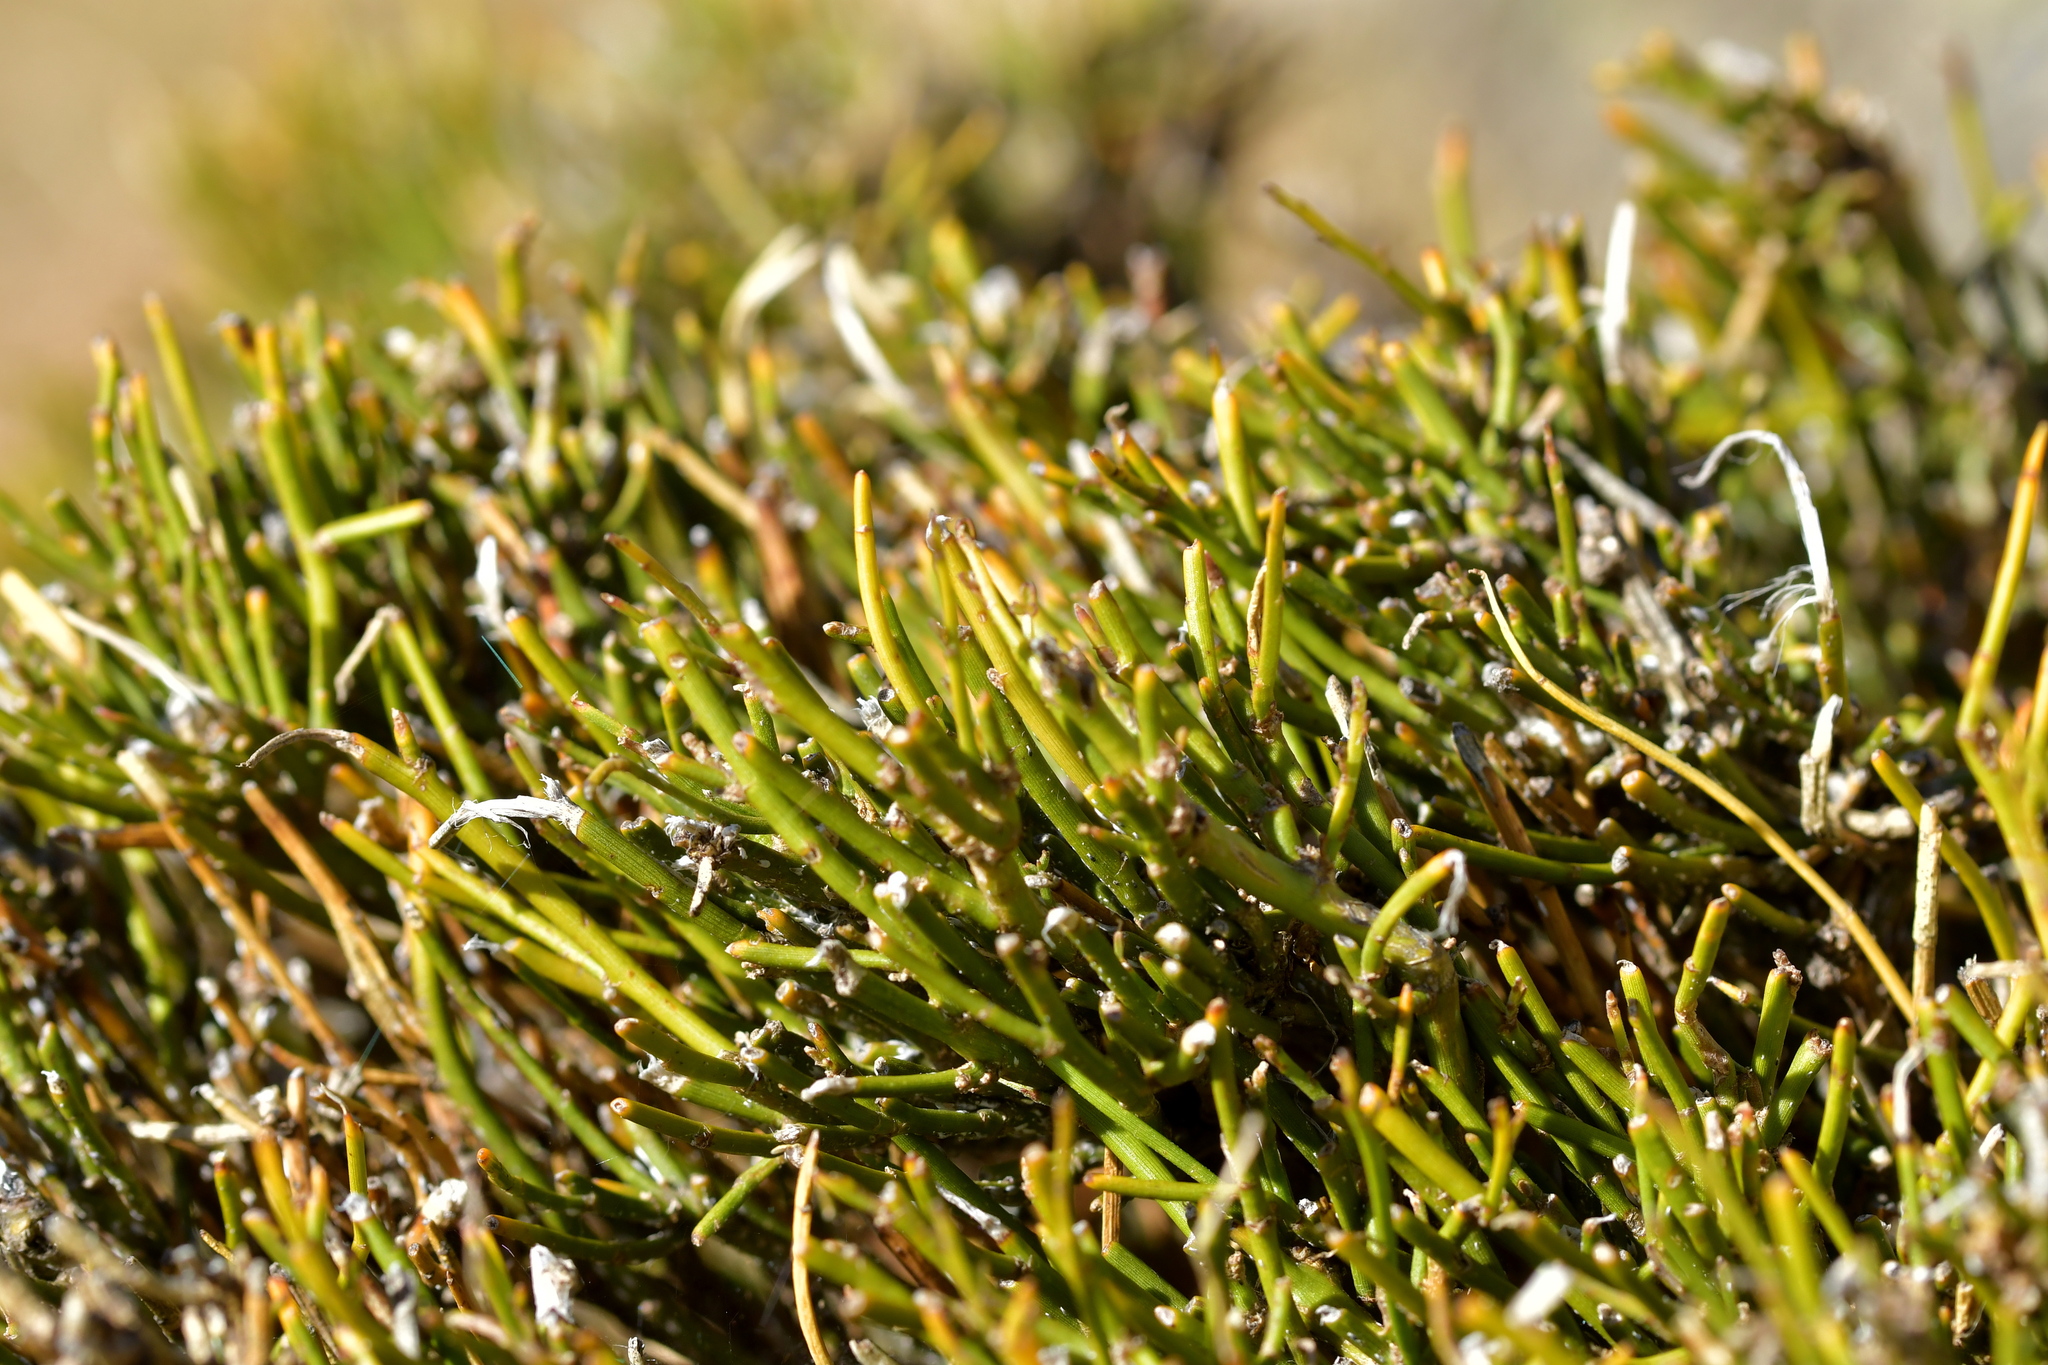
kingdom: Plantae
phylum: Tracheophyta
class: Magnoliopsida
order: Fabales
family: Fabaceae
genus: Carmichaelia
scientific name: Carmichaelia petriei
